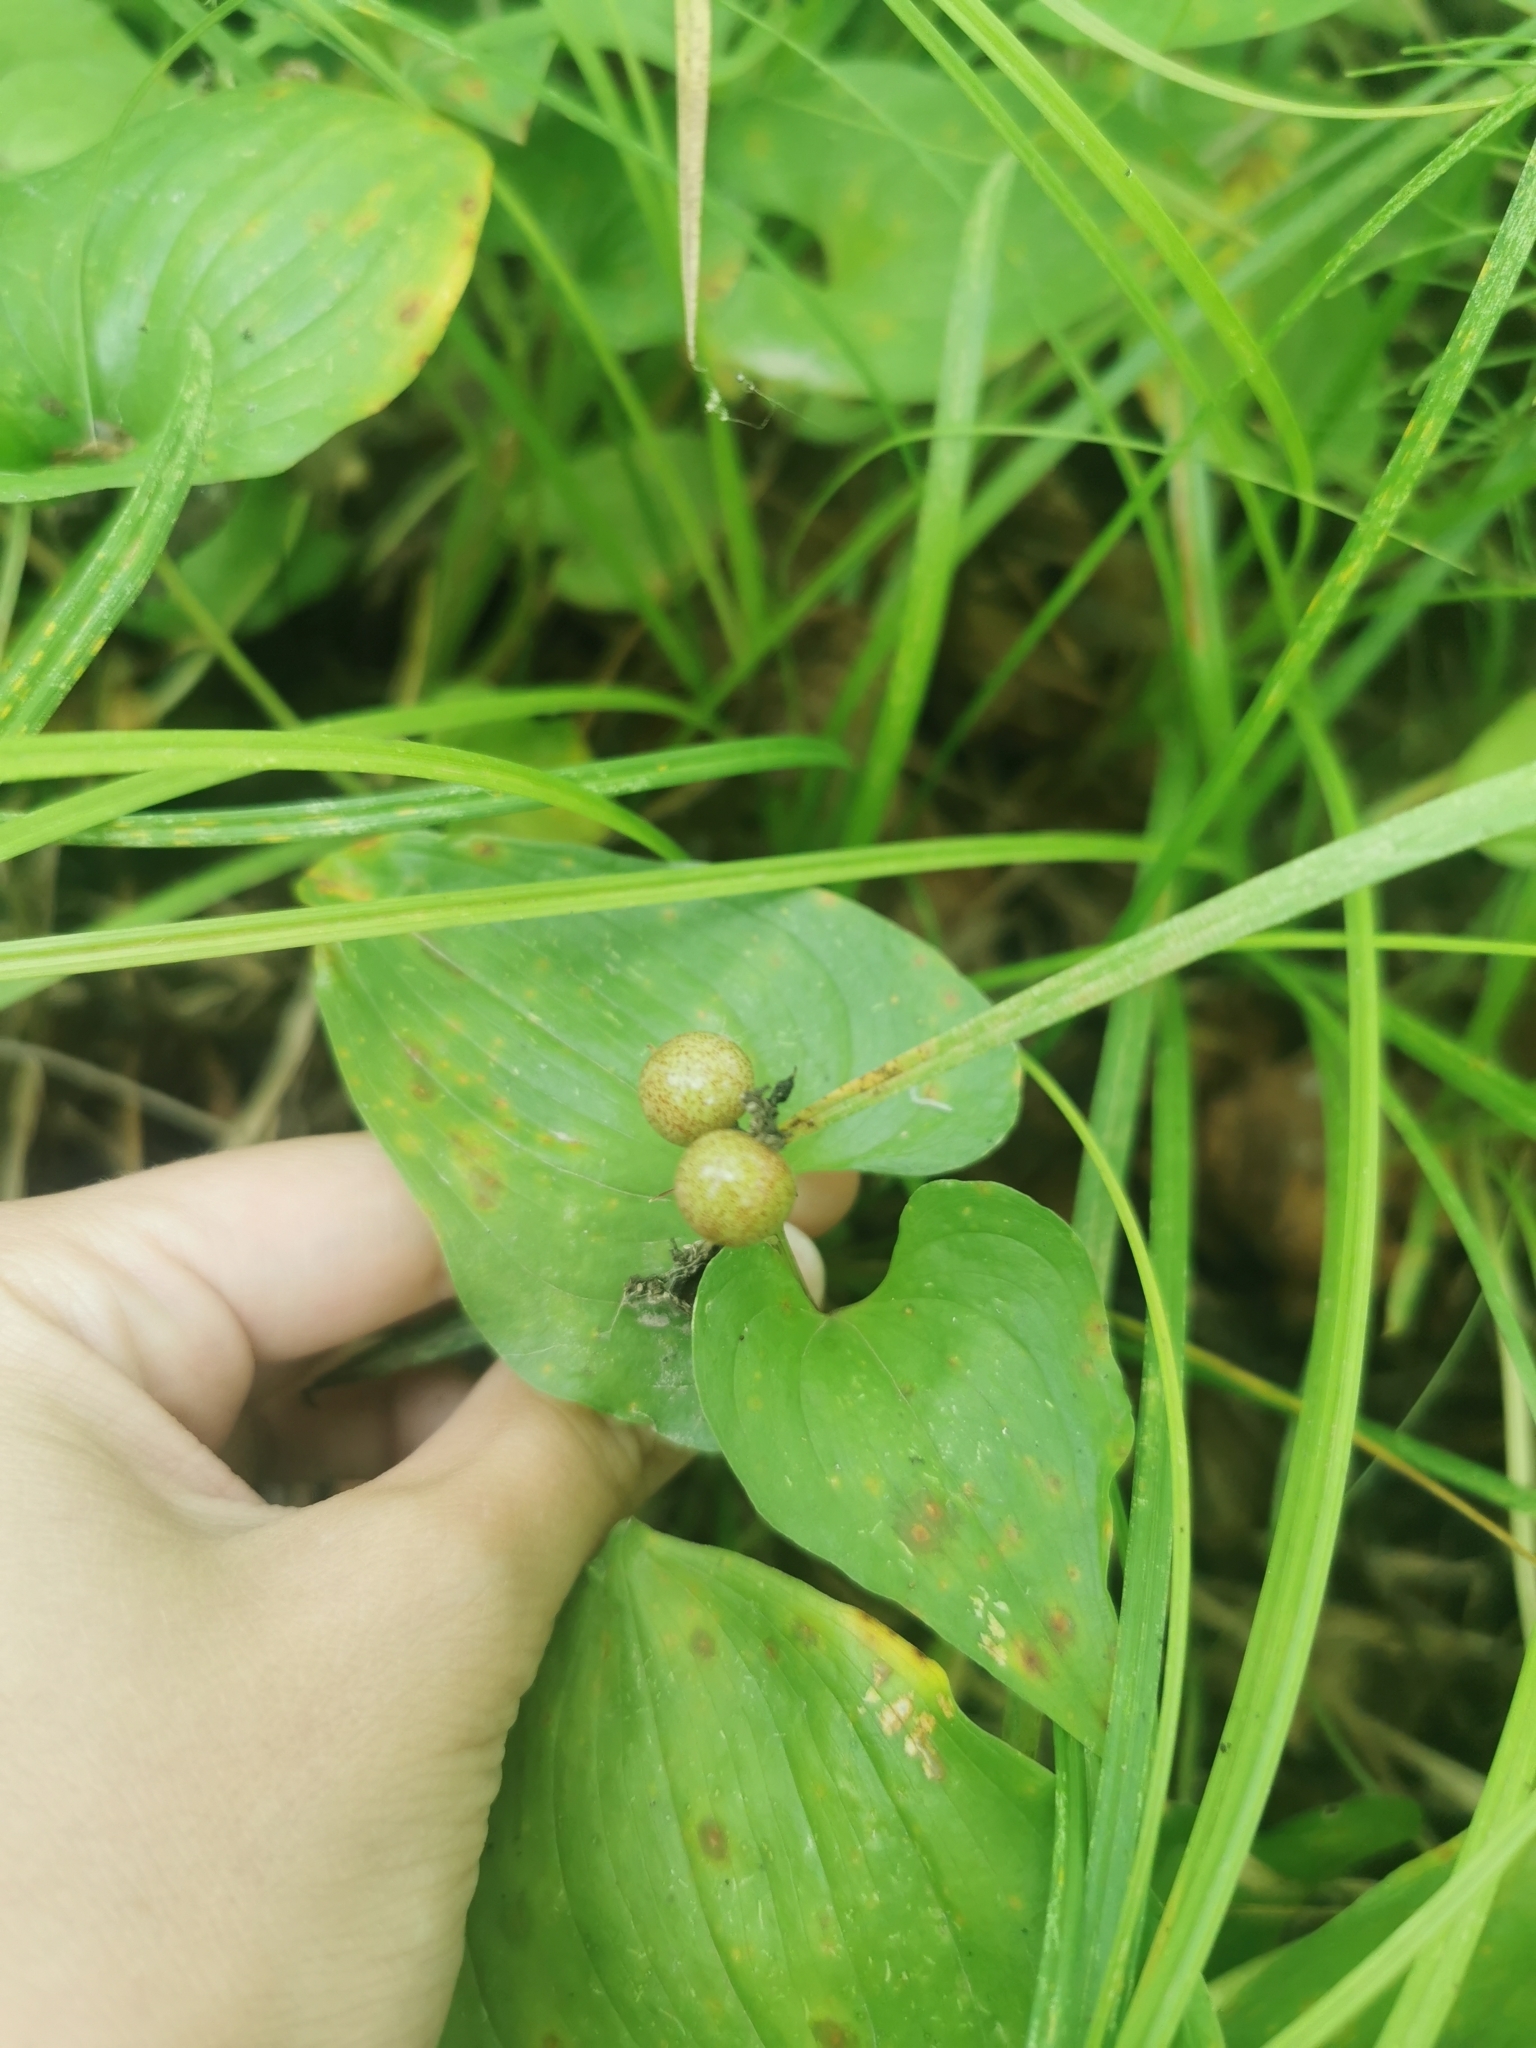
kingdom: Plantae
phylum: Tracheophyta
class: Liliopsida
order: Asparagales
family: Asparagaceae
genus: Maianthemum
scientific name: Maianthemum dilatatum
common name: False lily-of-the-valley
